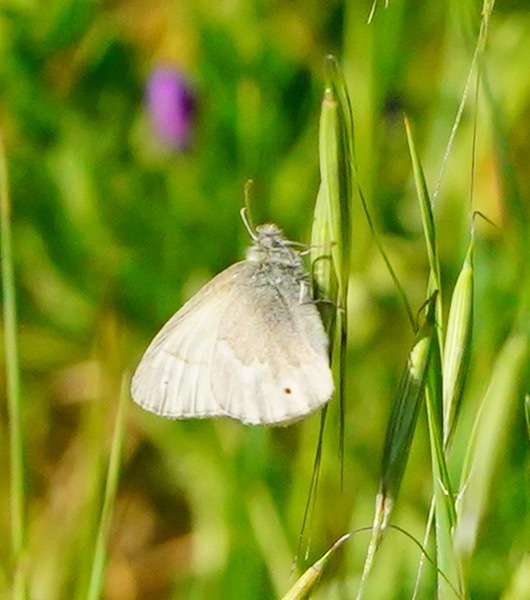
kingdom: Animalia
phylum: Arthropoda
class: Insecta
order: Lepidoptera
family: Nymphalidae
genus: Coenonympha
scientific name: Coenonympha california
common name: Common ringlet
